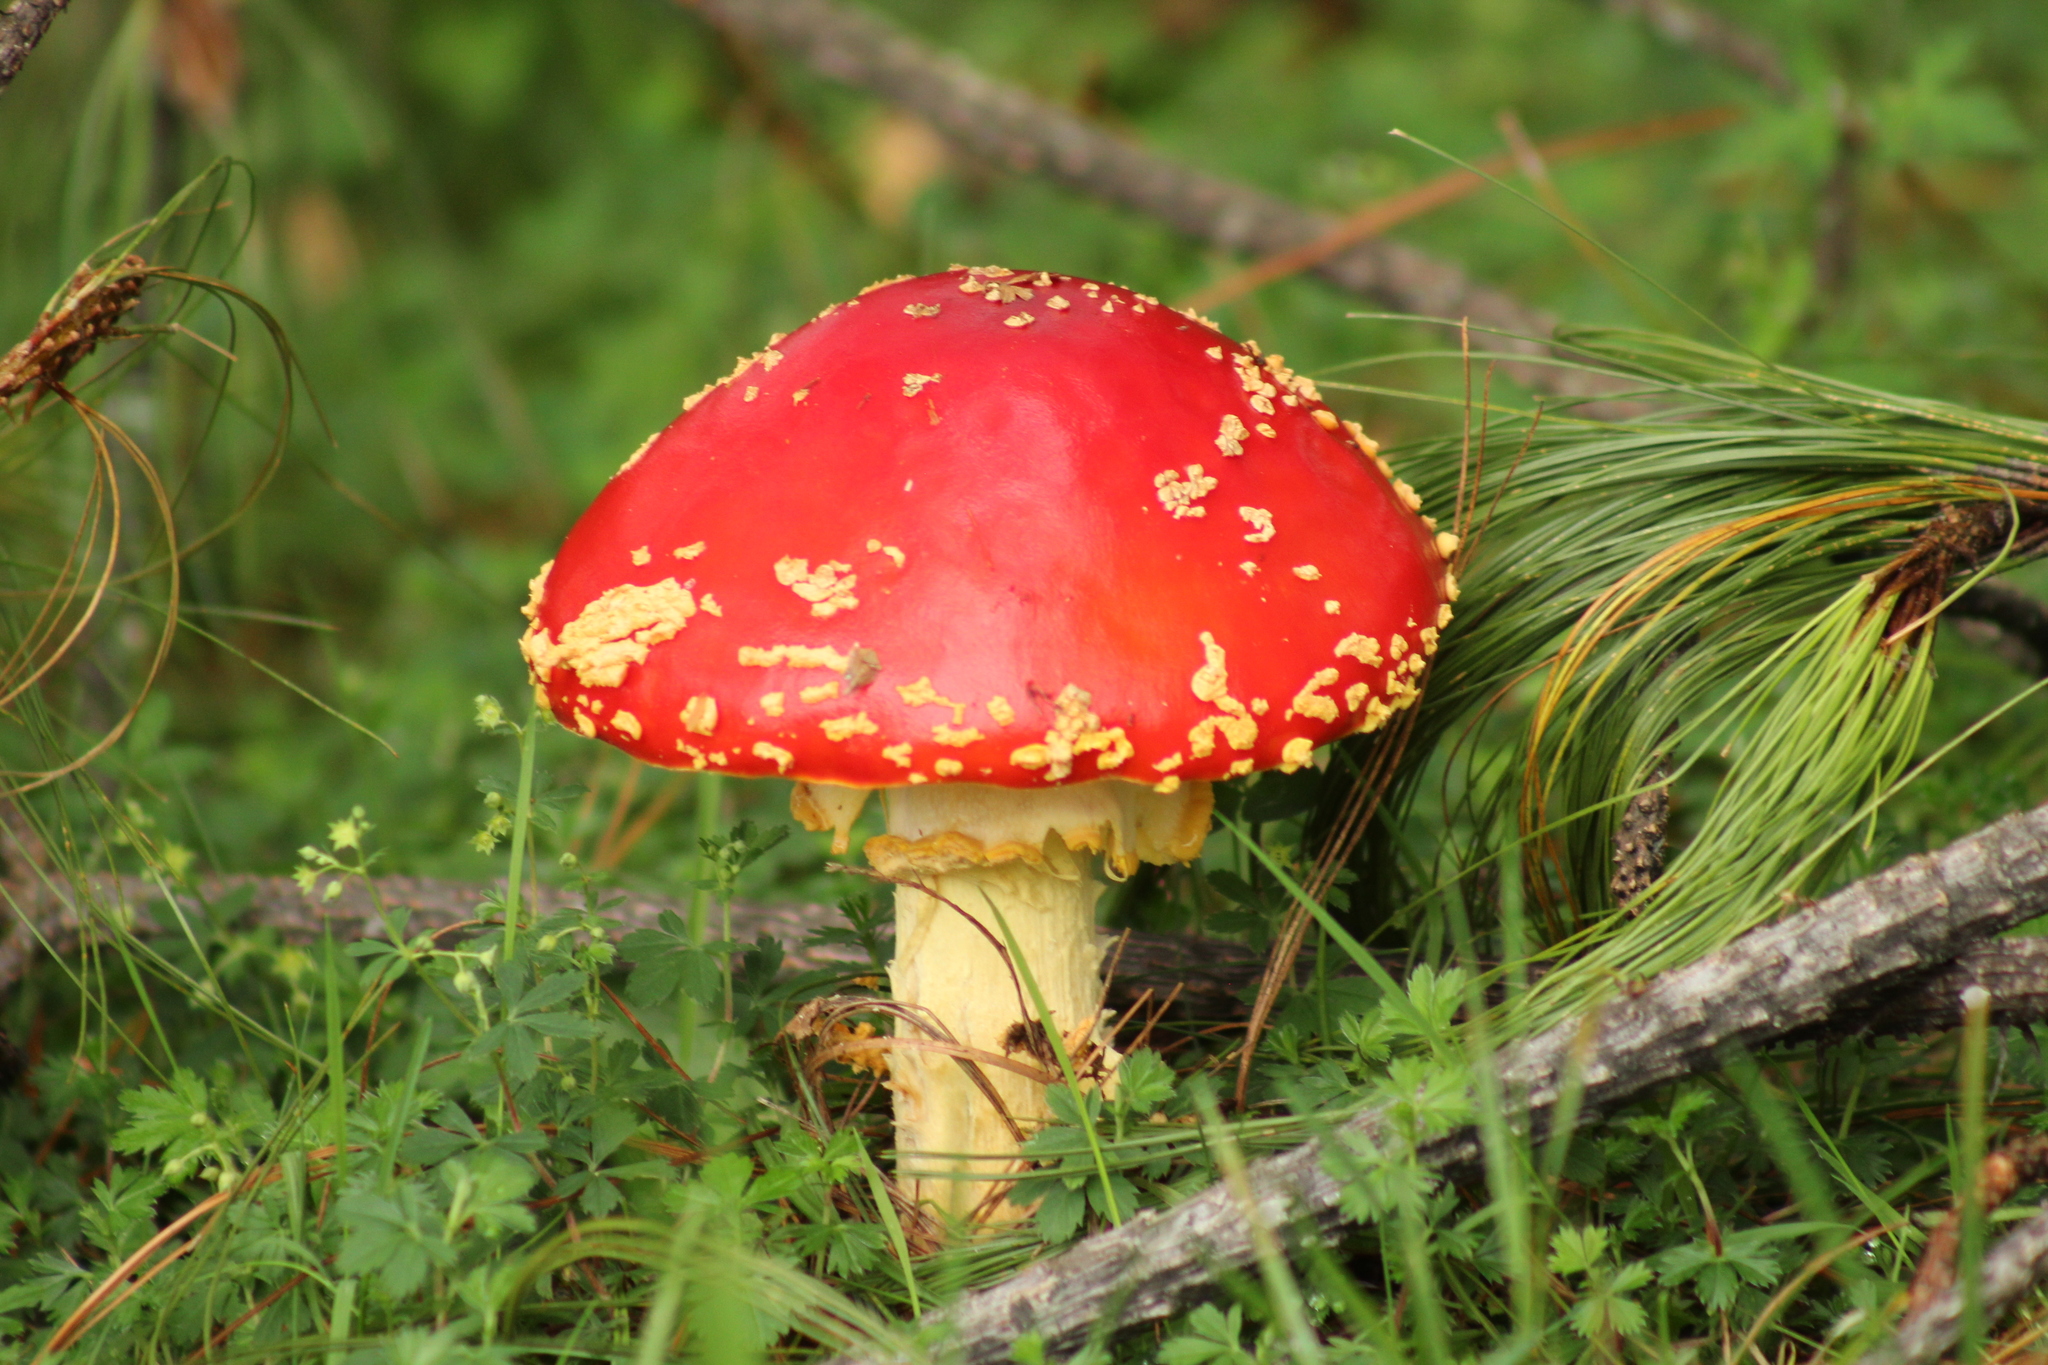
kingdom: Fungi
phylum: Basidiomycota
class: Agaricomycetes
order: Agaricales
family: Amanitaceae
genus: Amanita
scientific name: Amanita muscaria
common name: Fly agaric
